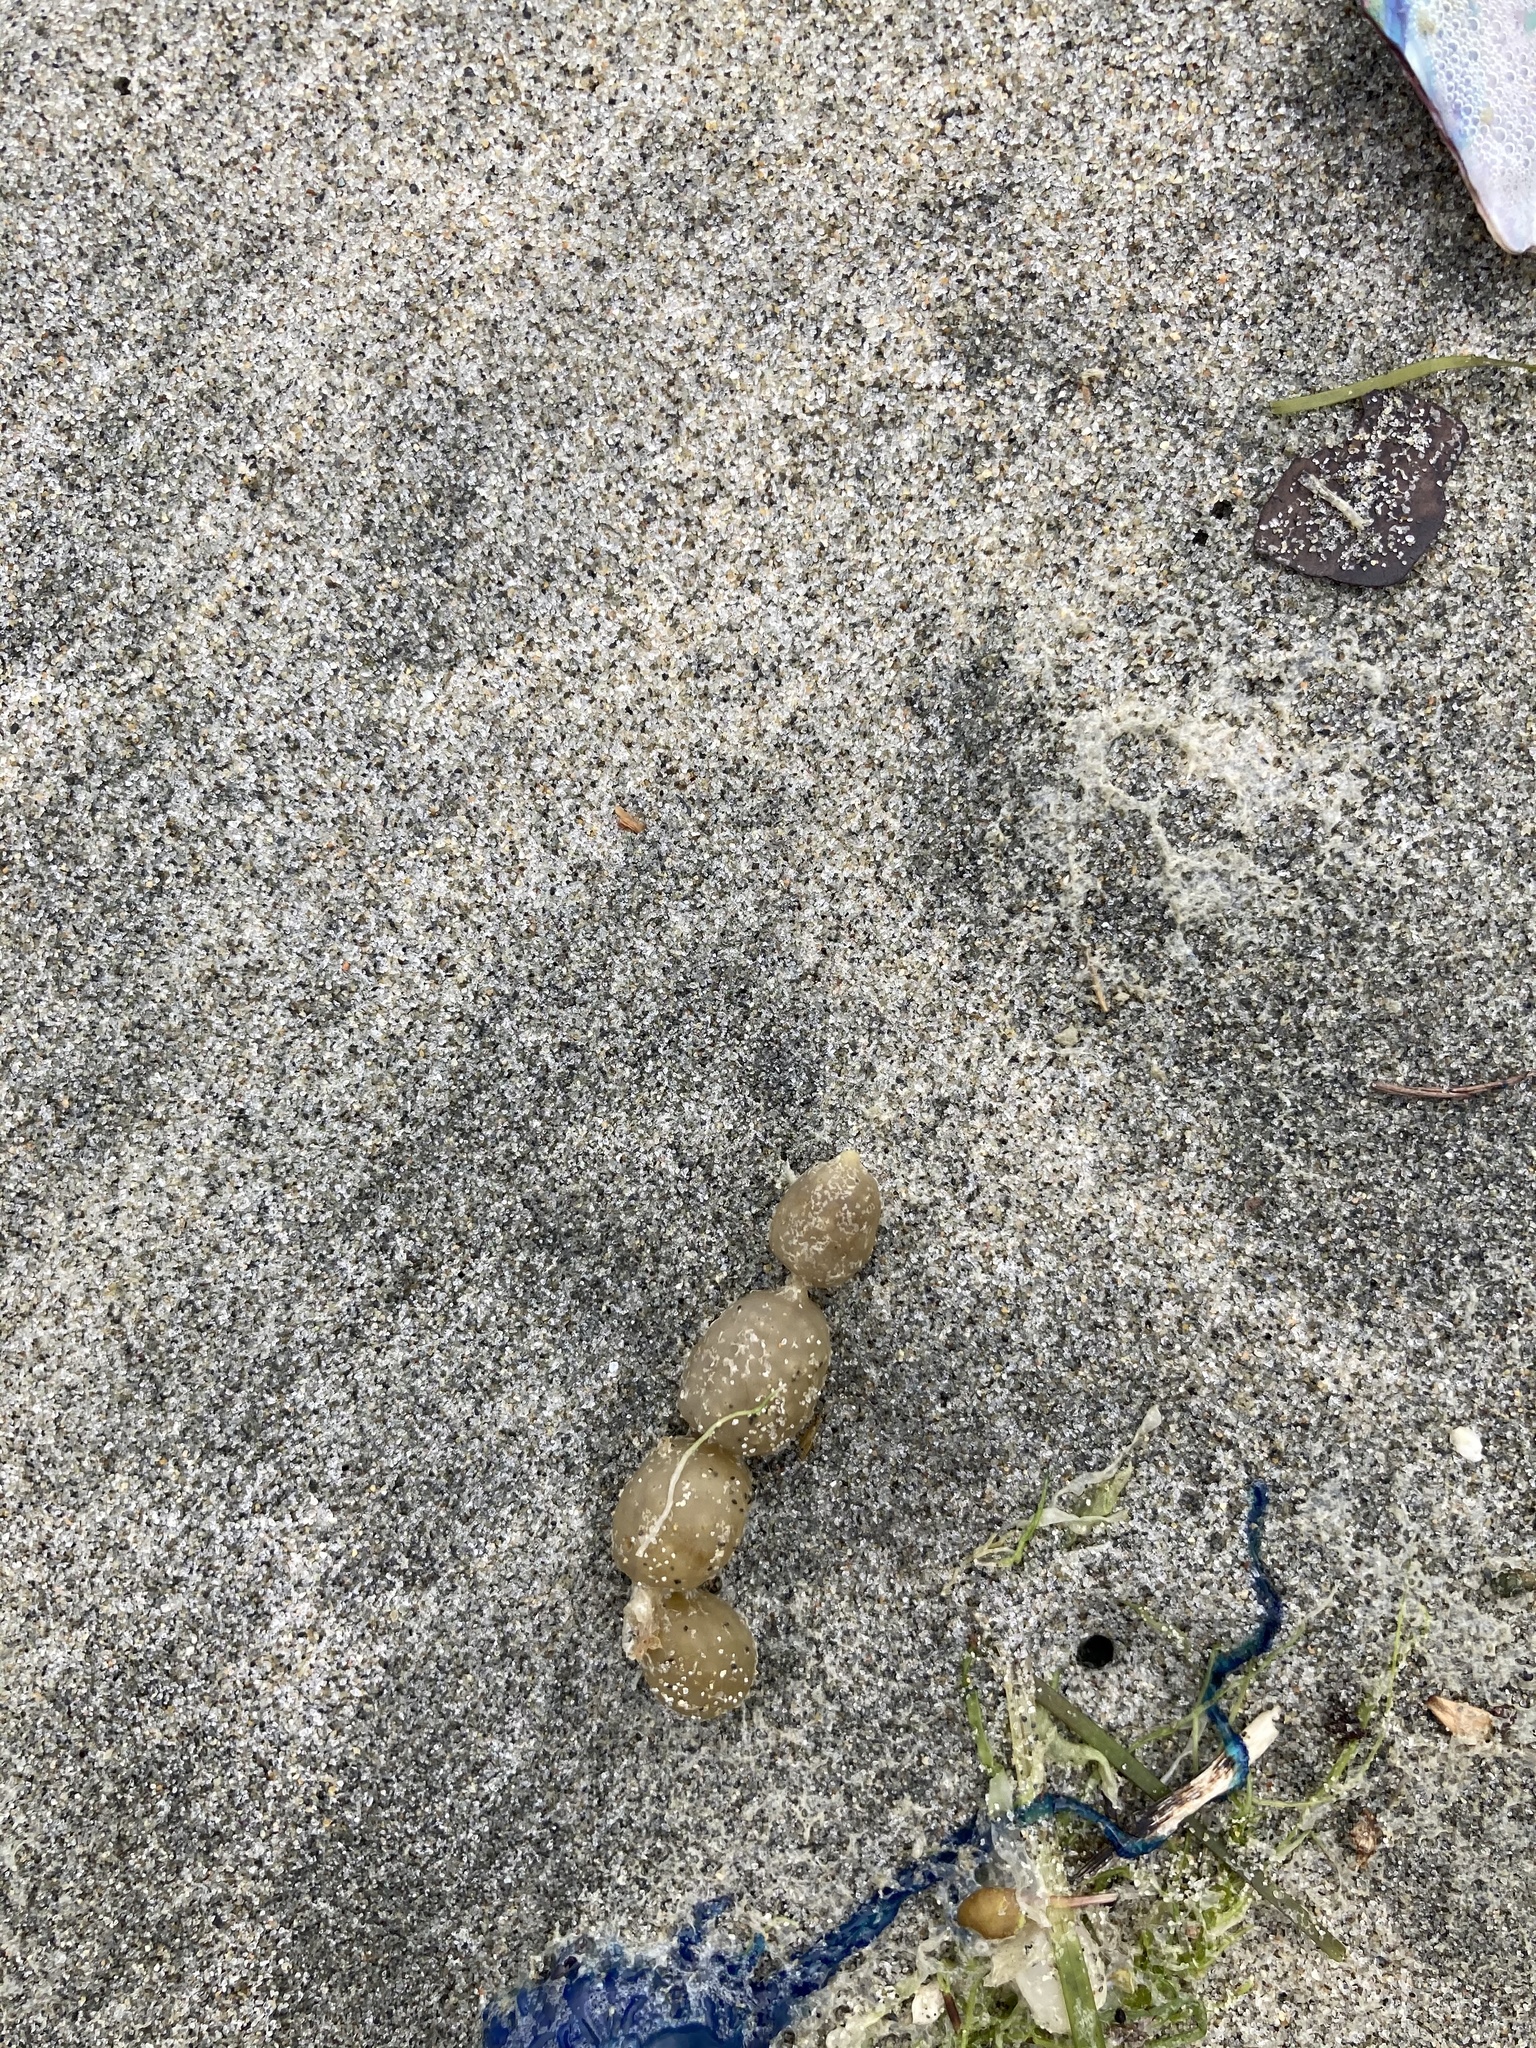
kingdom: Chromista
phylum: Ochrophyta
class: Phaeophyceae
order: Fucales
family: Hormosiraceae
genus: Hormosira
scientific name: Hormosira banksii
